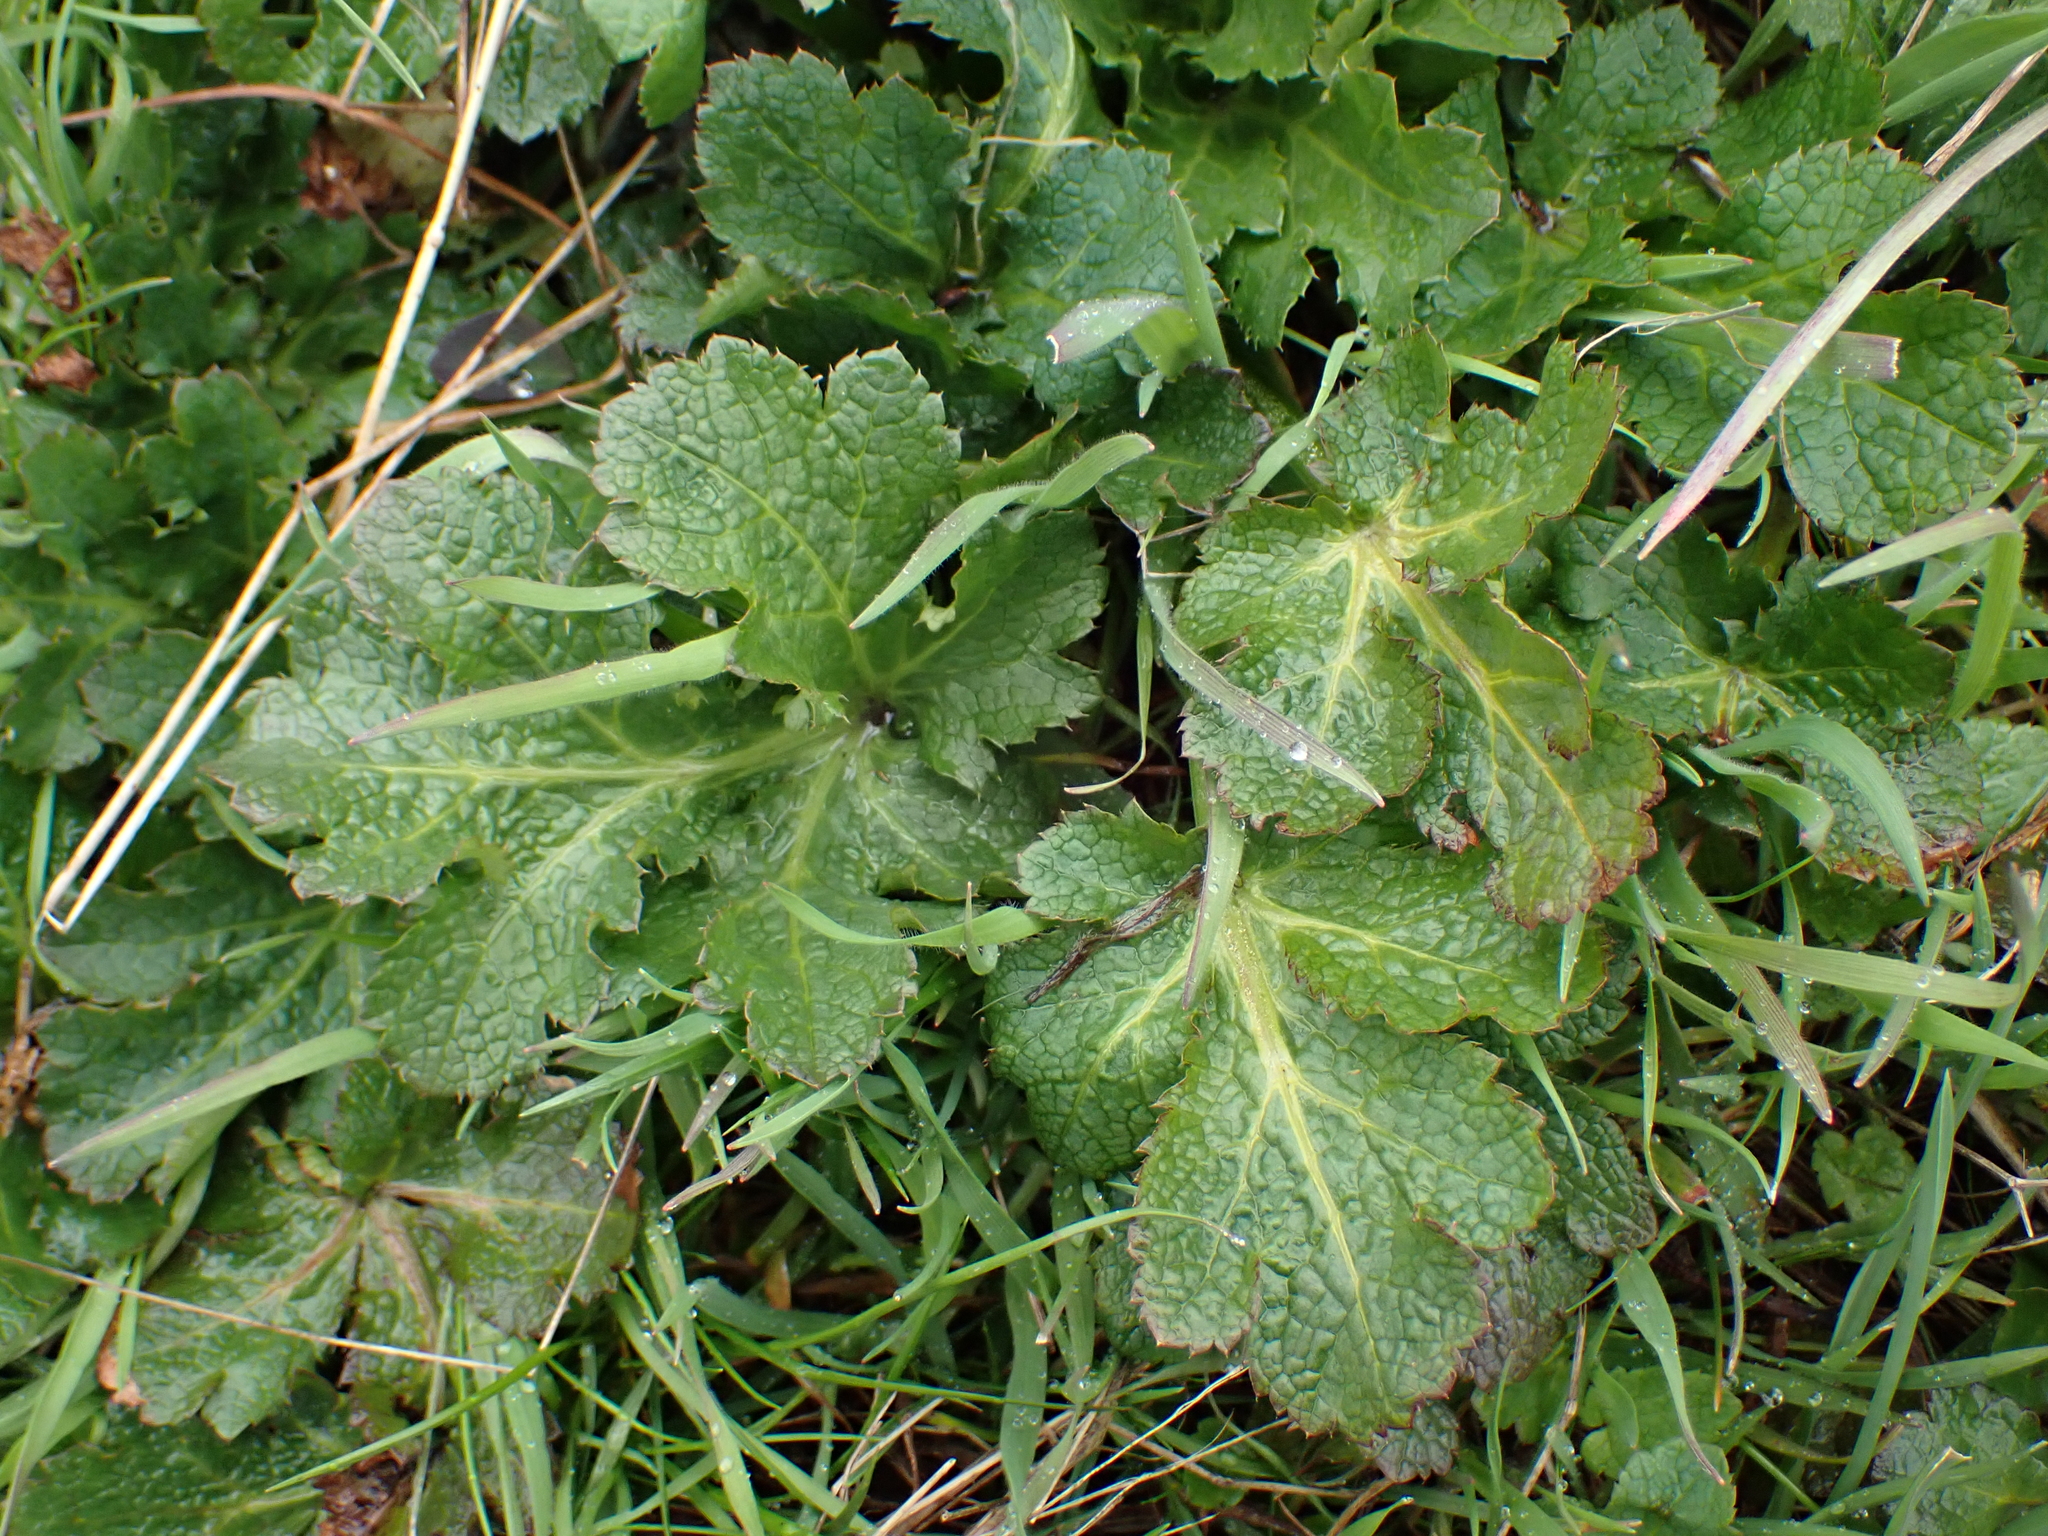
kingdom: Plantae
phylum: Tracheophyta
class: Magnoliopsida
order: Apiales
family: Apiaceae
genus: Sanicula
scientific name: Sanicula crassicaulis
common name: Western snakeroot
